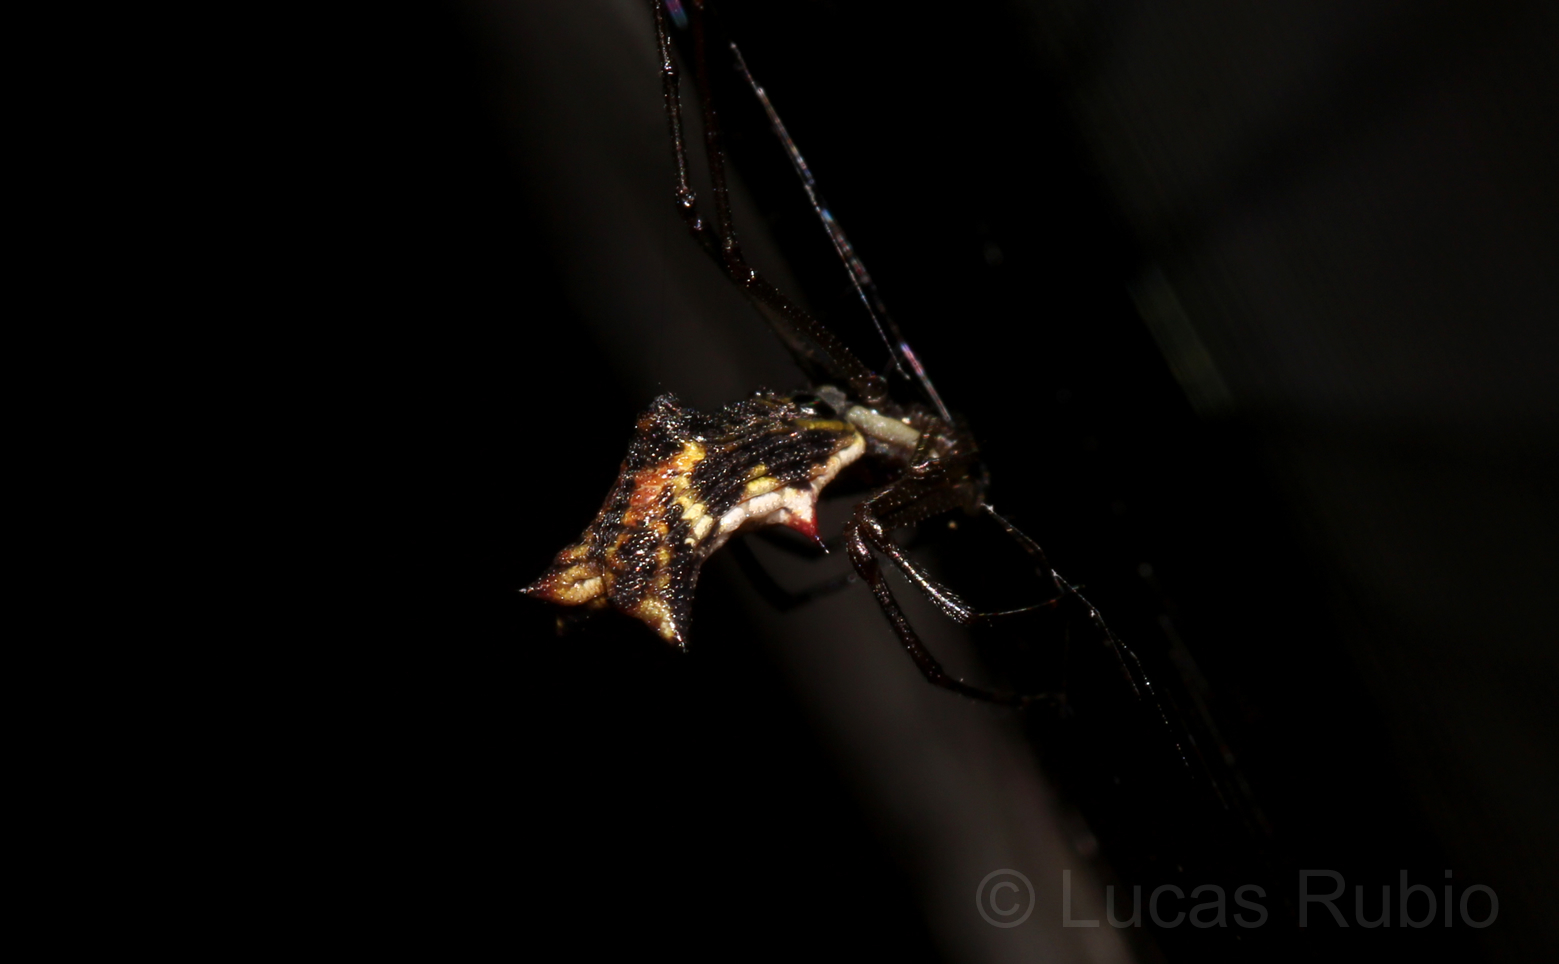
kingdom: Animalia
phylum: Arthropoda
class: Arachnida
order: Araneae
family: Araneidae
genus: Micrathena
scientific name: Micrathena nigrichelis
